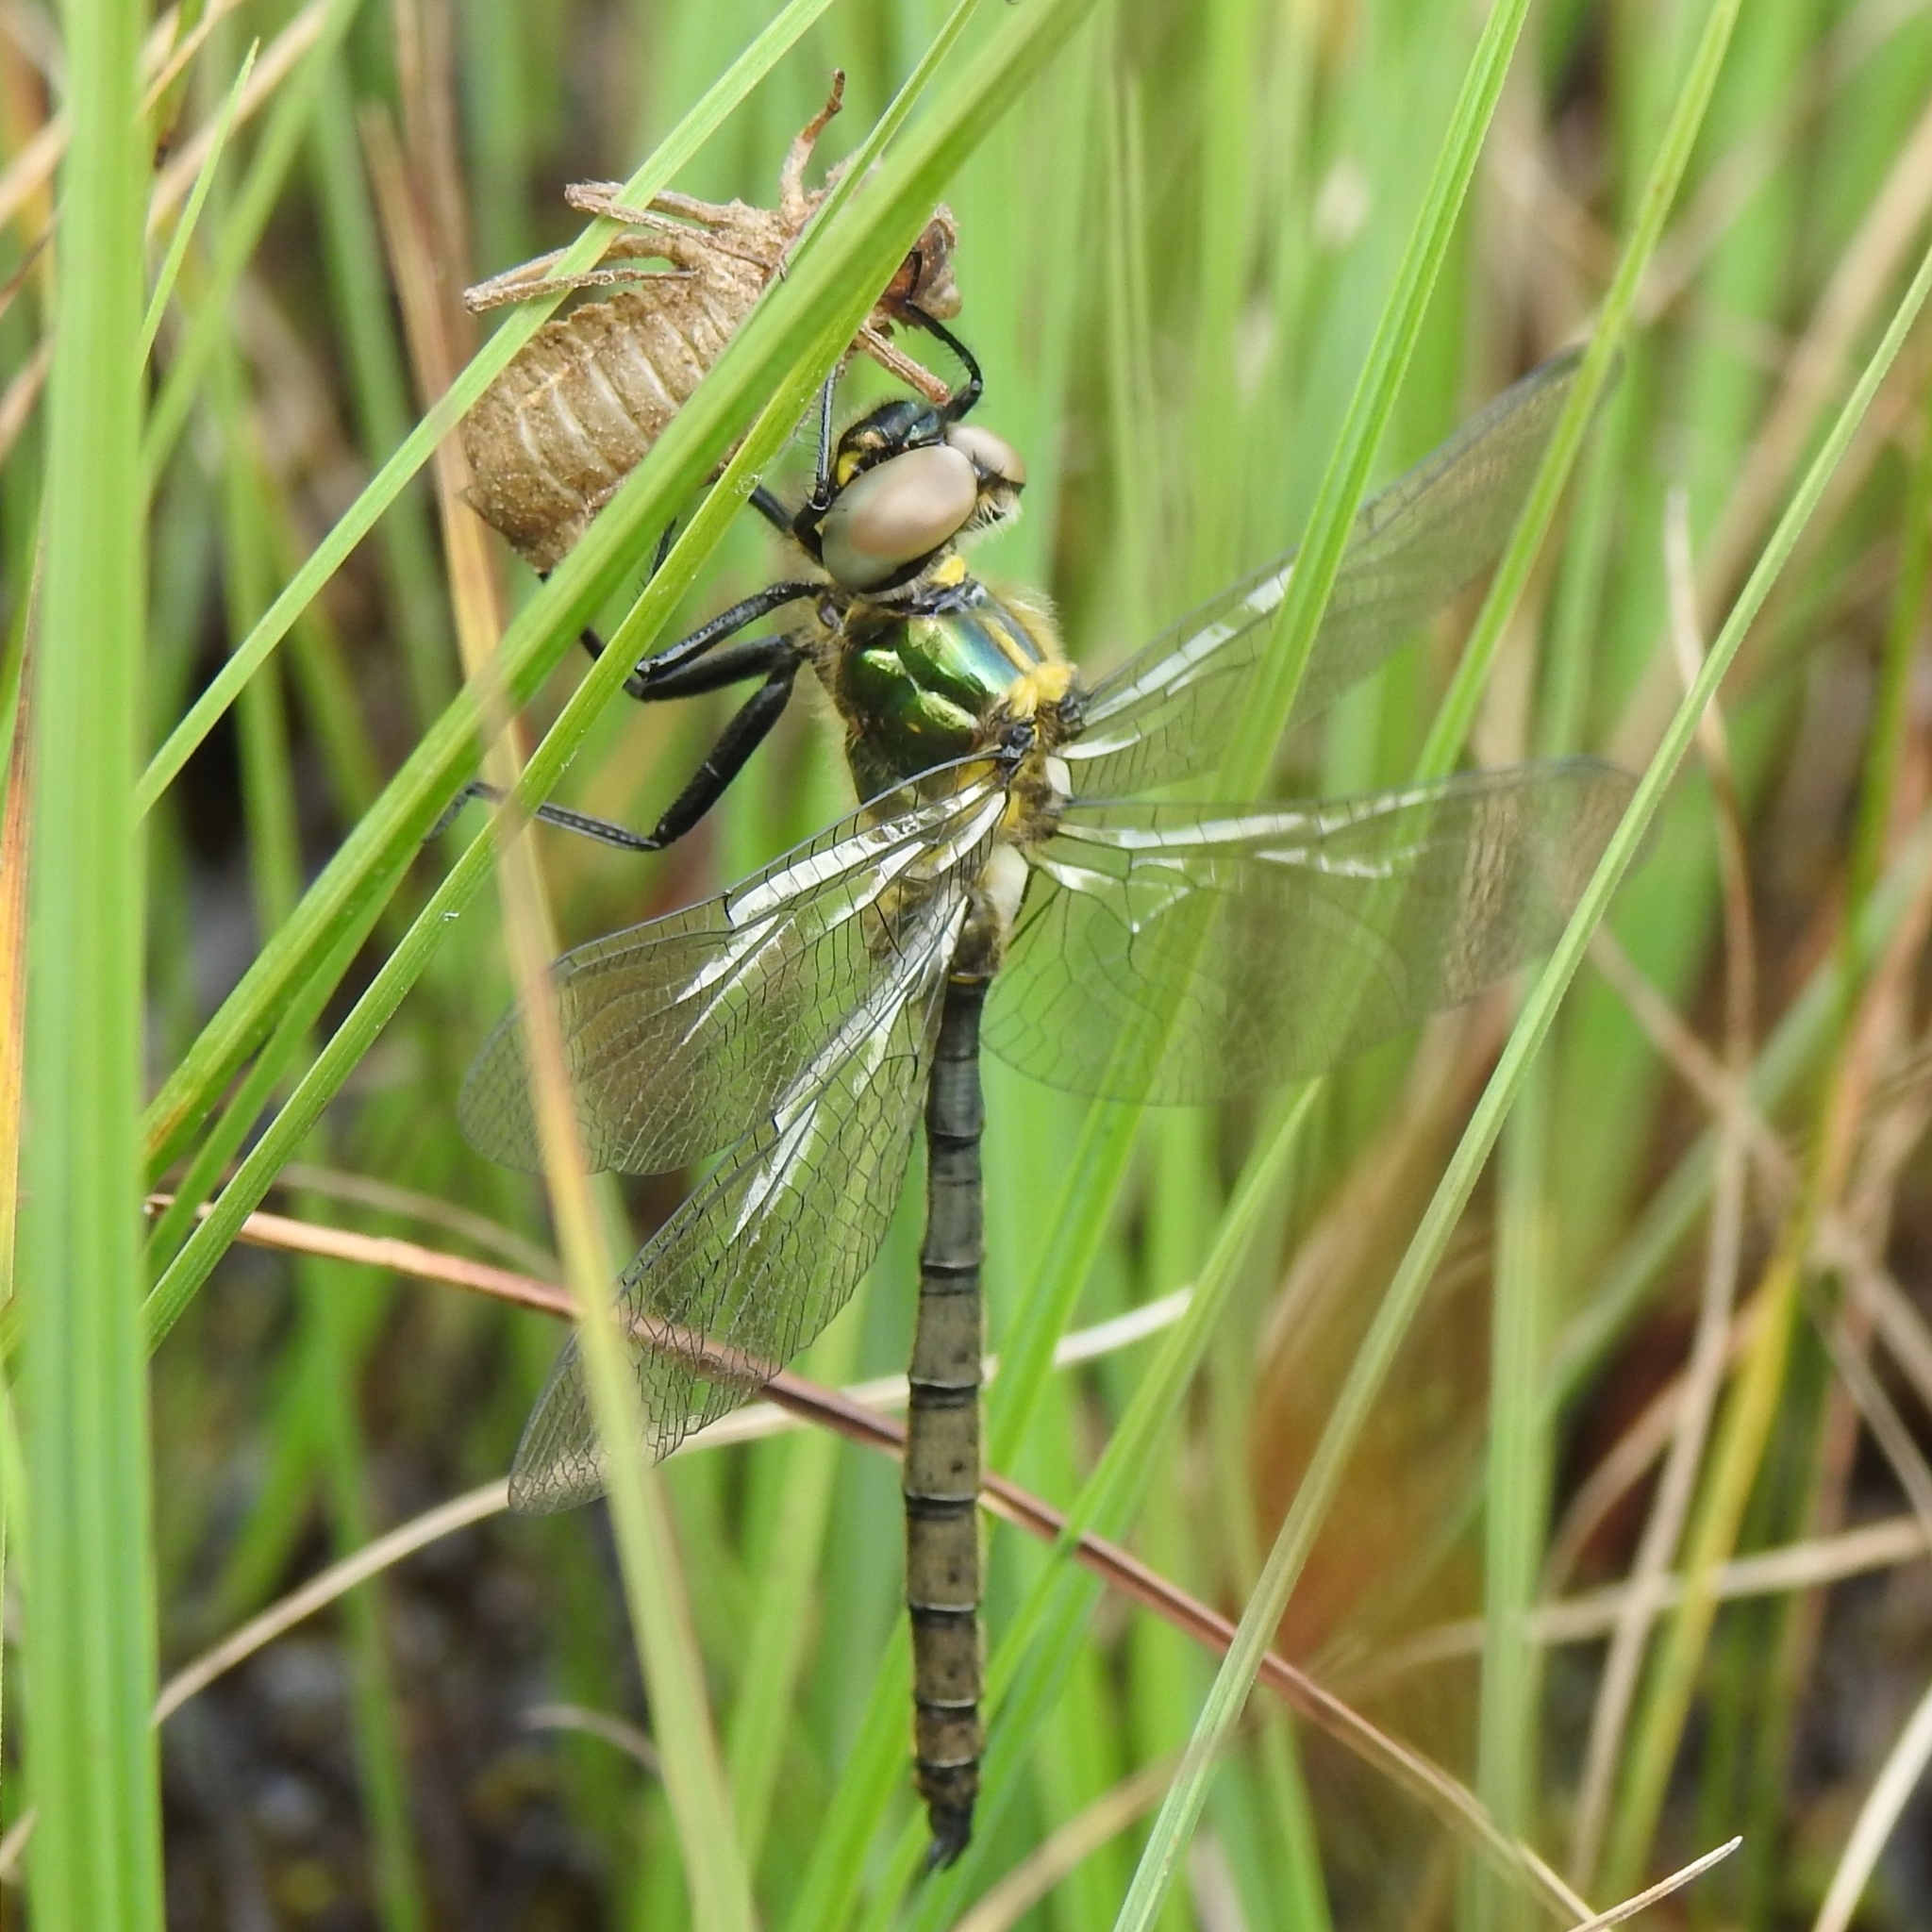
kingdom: Animalia
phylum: Arthropoda
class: Insecta
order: Odonata
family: Corduliidae
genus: Somatochlora
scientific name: Somatochlora arctica
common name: Northern emerald
